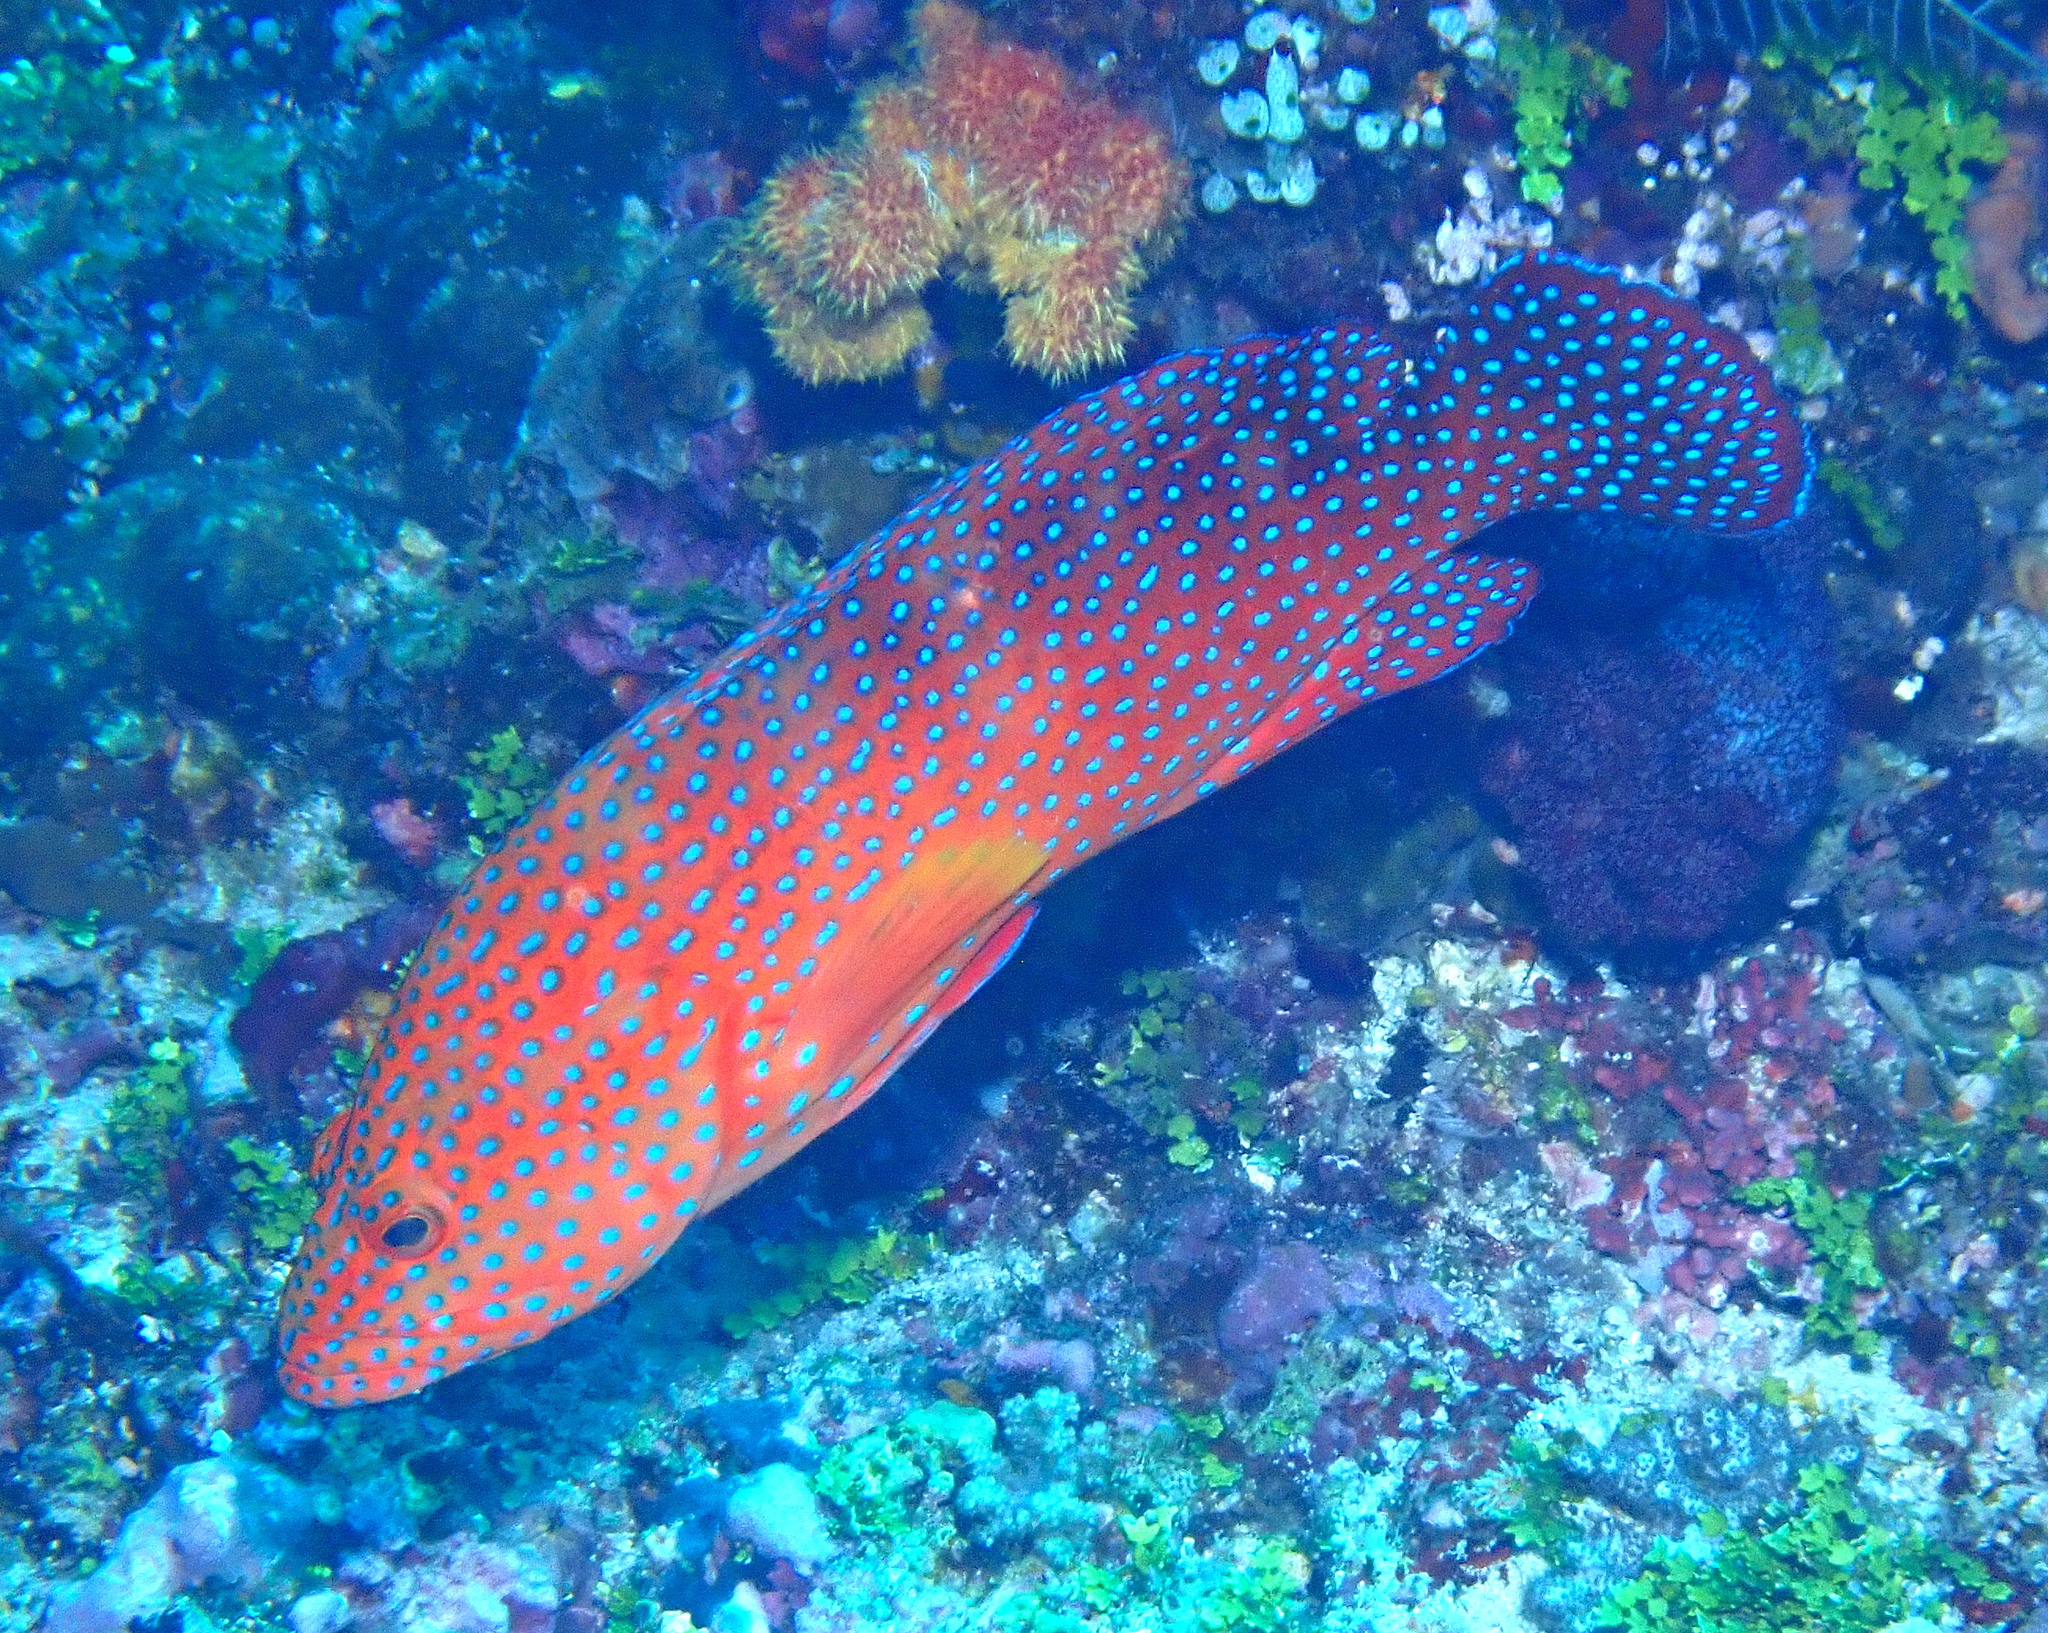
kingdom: Animalia
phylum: Chordata
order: Perciformes
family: Serranidae
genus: Cephalopholis
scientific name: Cephalopholis miniata
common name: Coral hind
